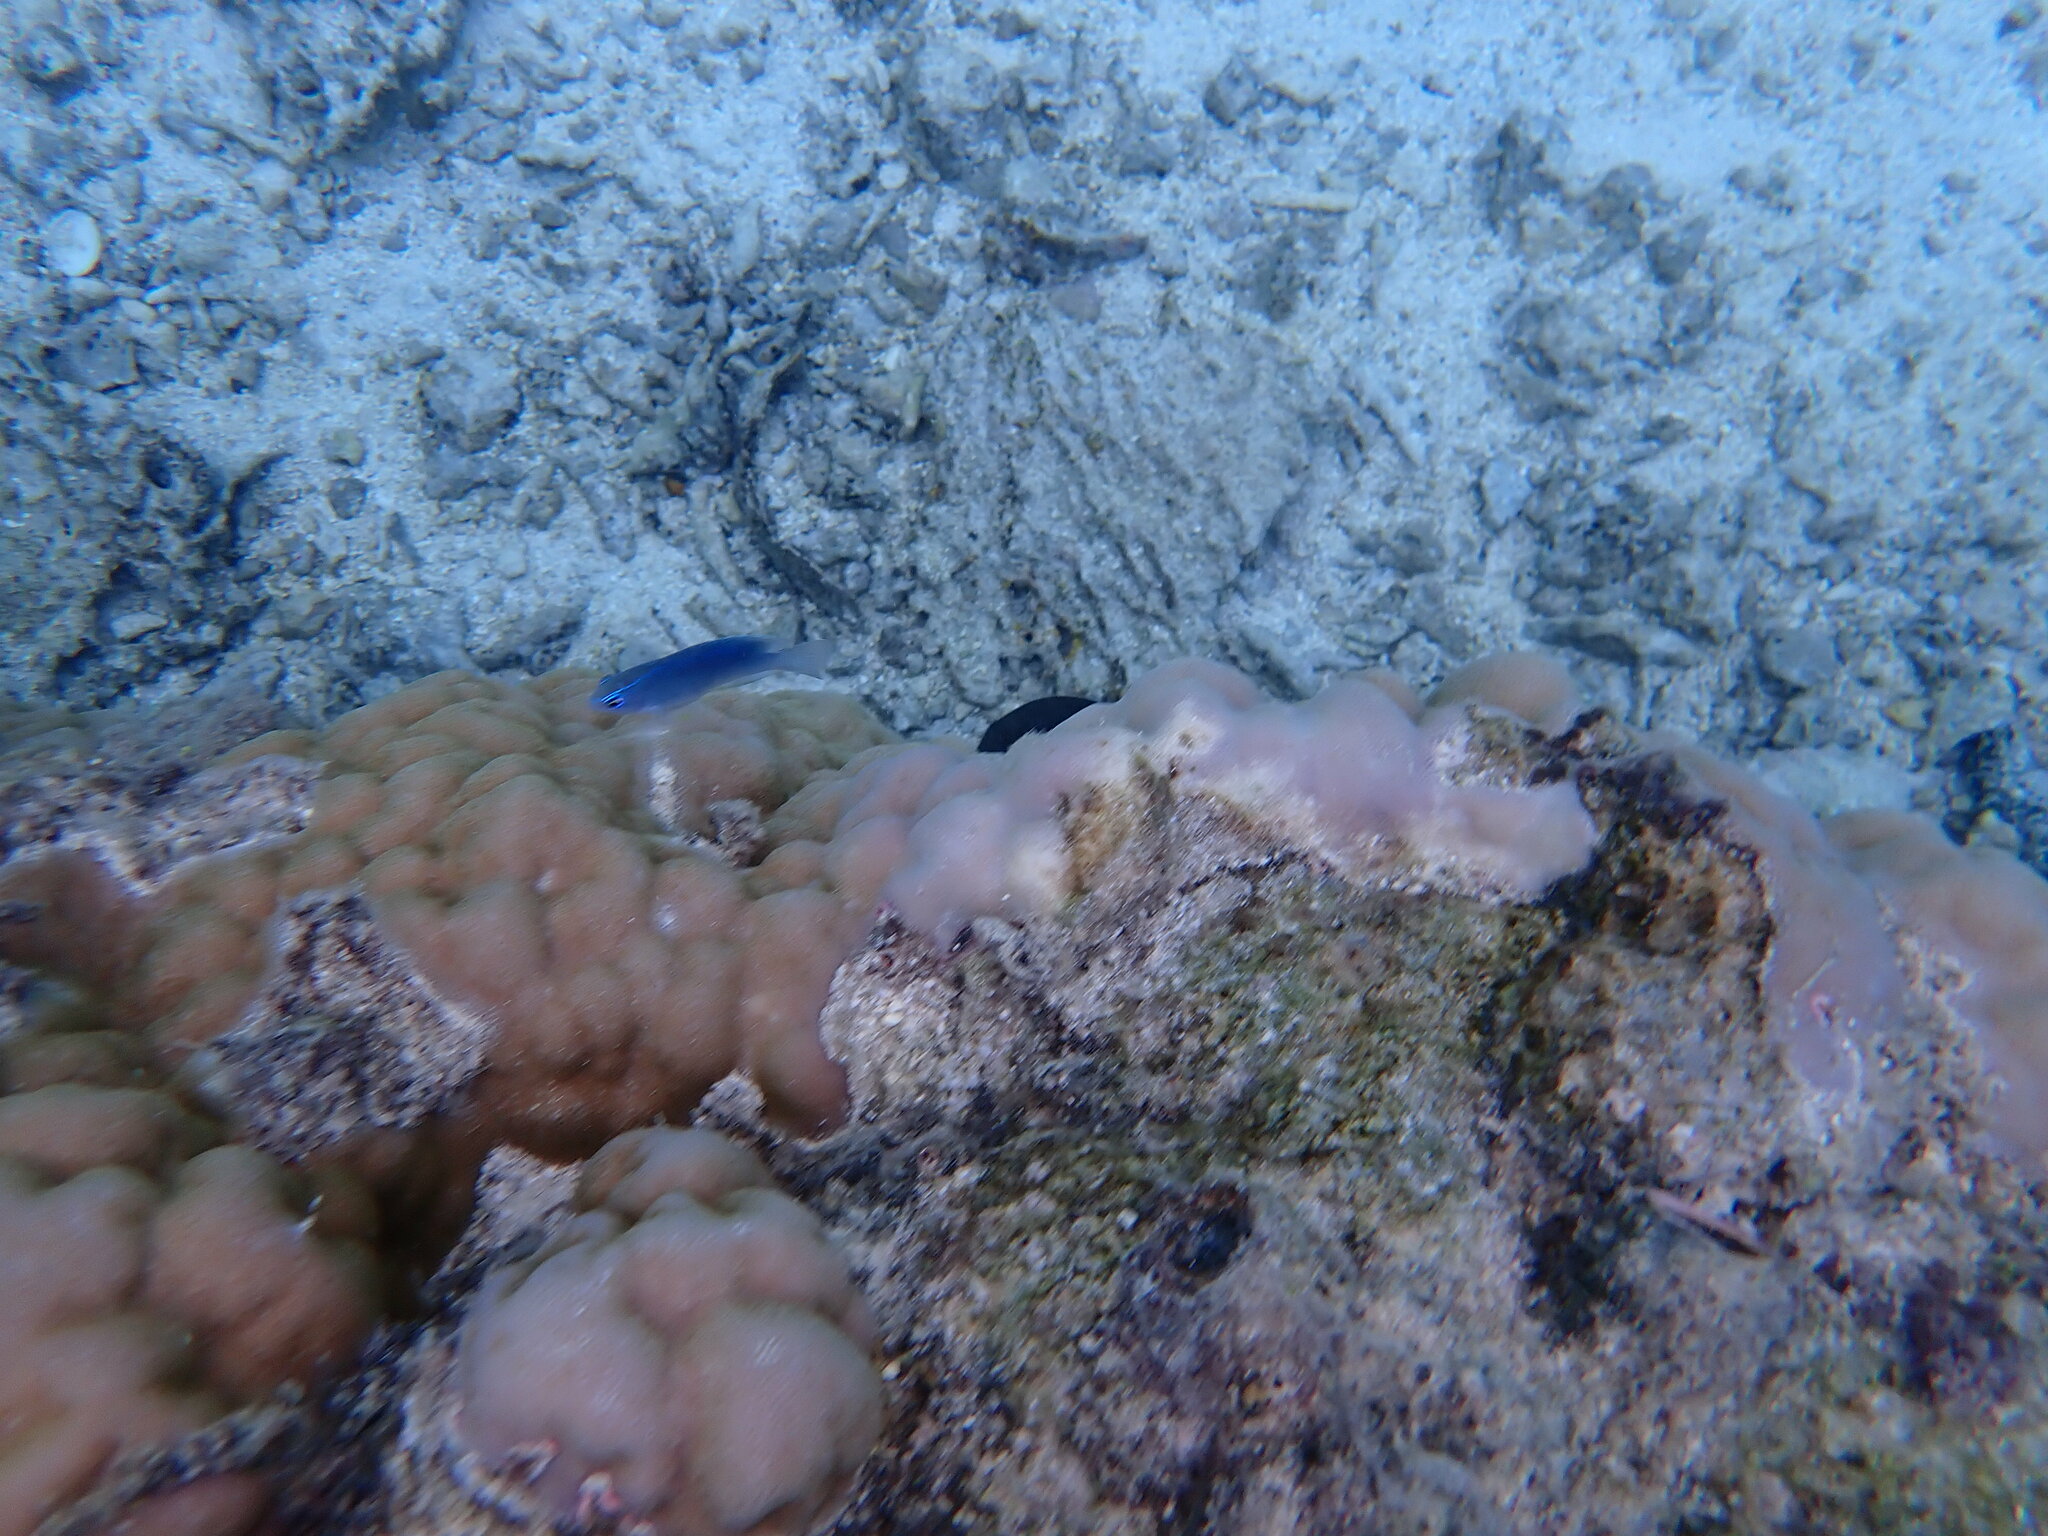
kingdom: Animalia
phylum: Chordata
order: Perciformes
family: Pomacentridae
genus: Chrysiptera
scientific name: Chrysiptera glauca
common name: Grey demoiselle
